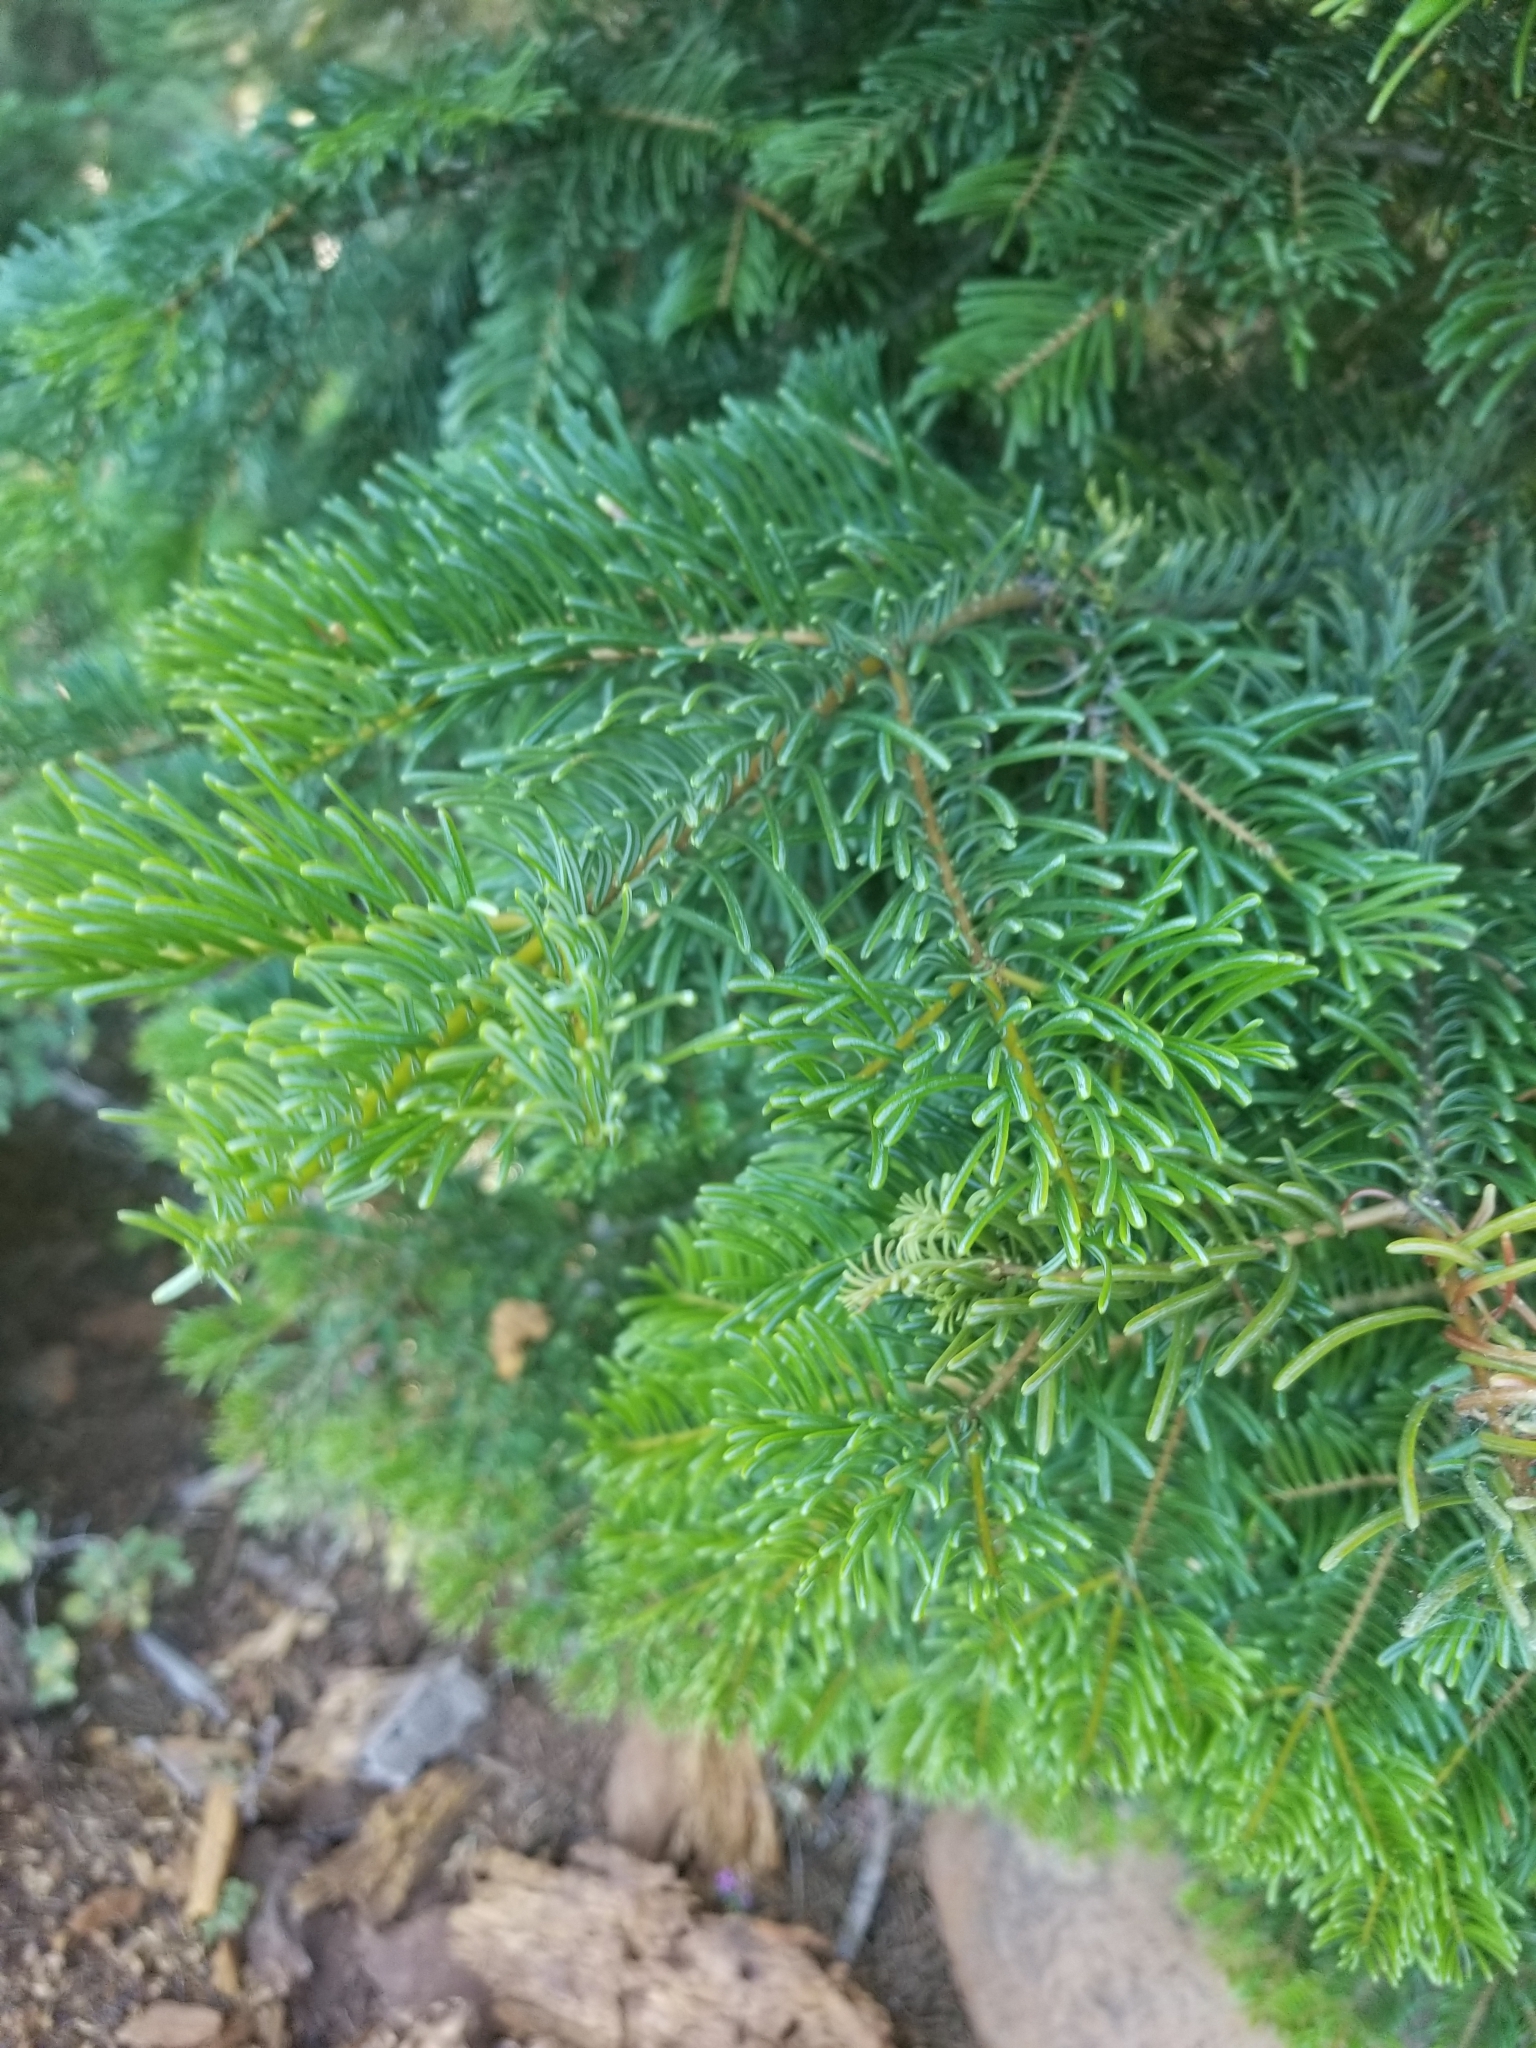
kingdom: Plantae
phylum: Tracheophyta
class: Pinopsida
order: Pinales
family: Pinaceae
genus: Abies
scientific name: Abies concolor
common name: Colorado fir
